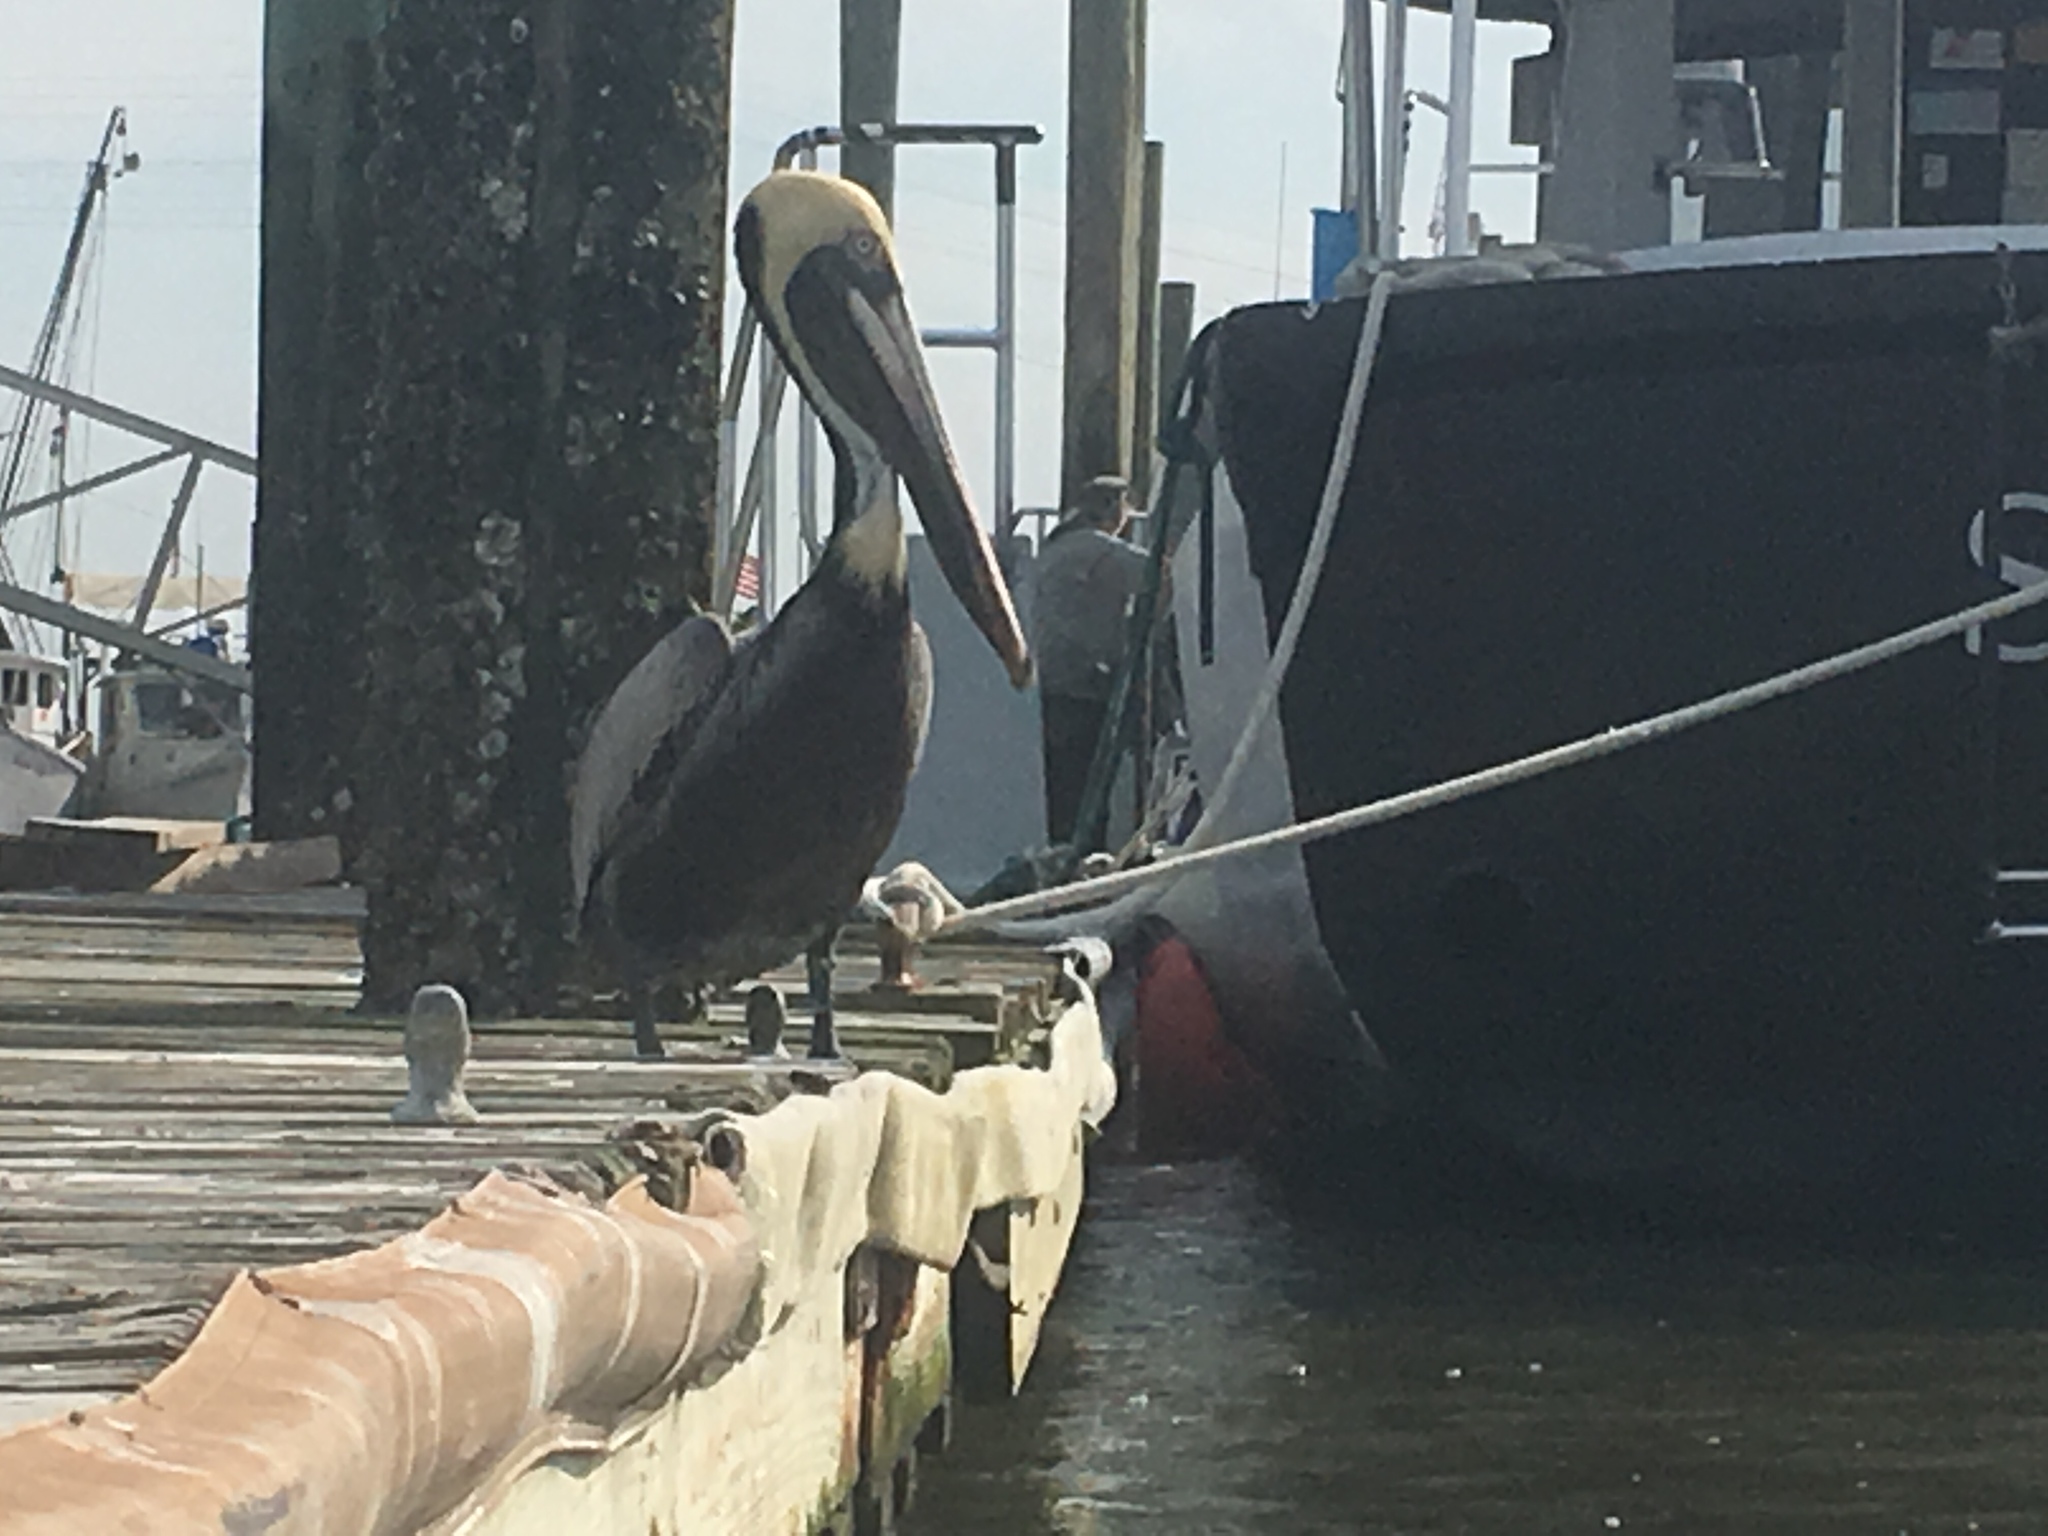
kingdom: Animalia
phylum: Chordata
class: Aves
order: Pelecaniformes
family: Pelecanidae
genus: Pelecanus
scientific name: Pelecanus occidentalis
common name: Brown pelican
